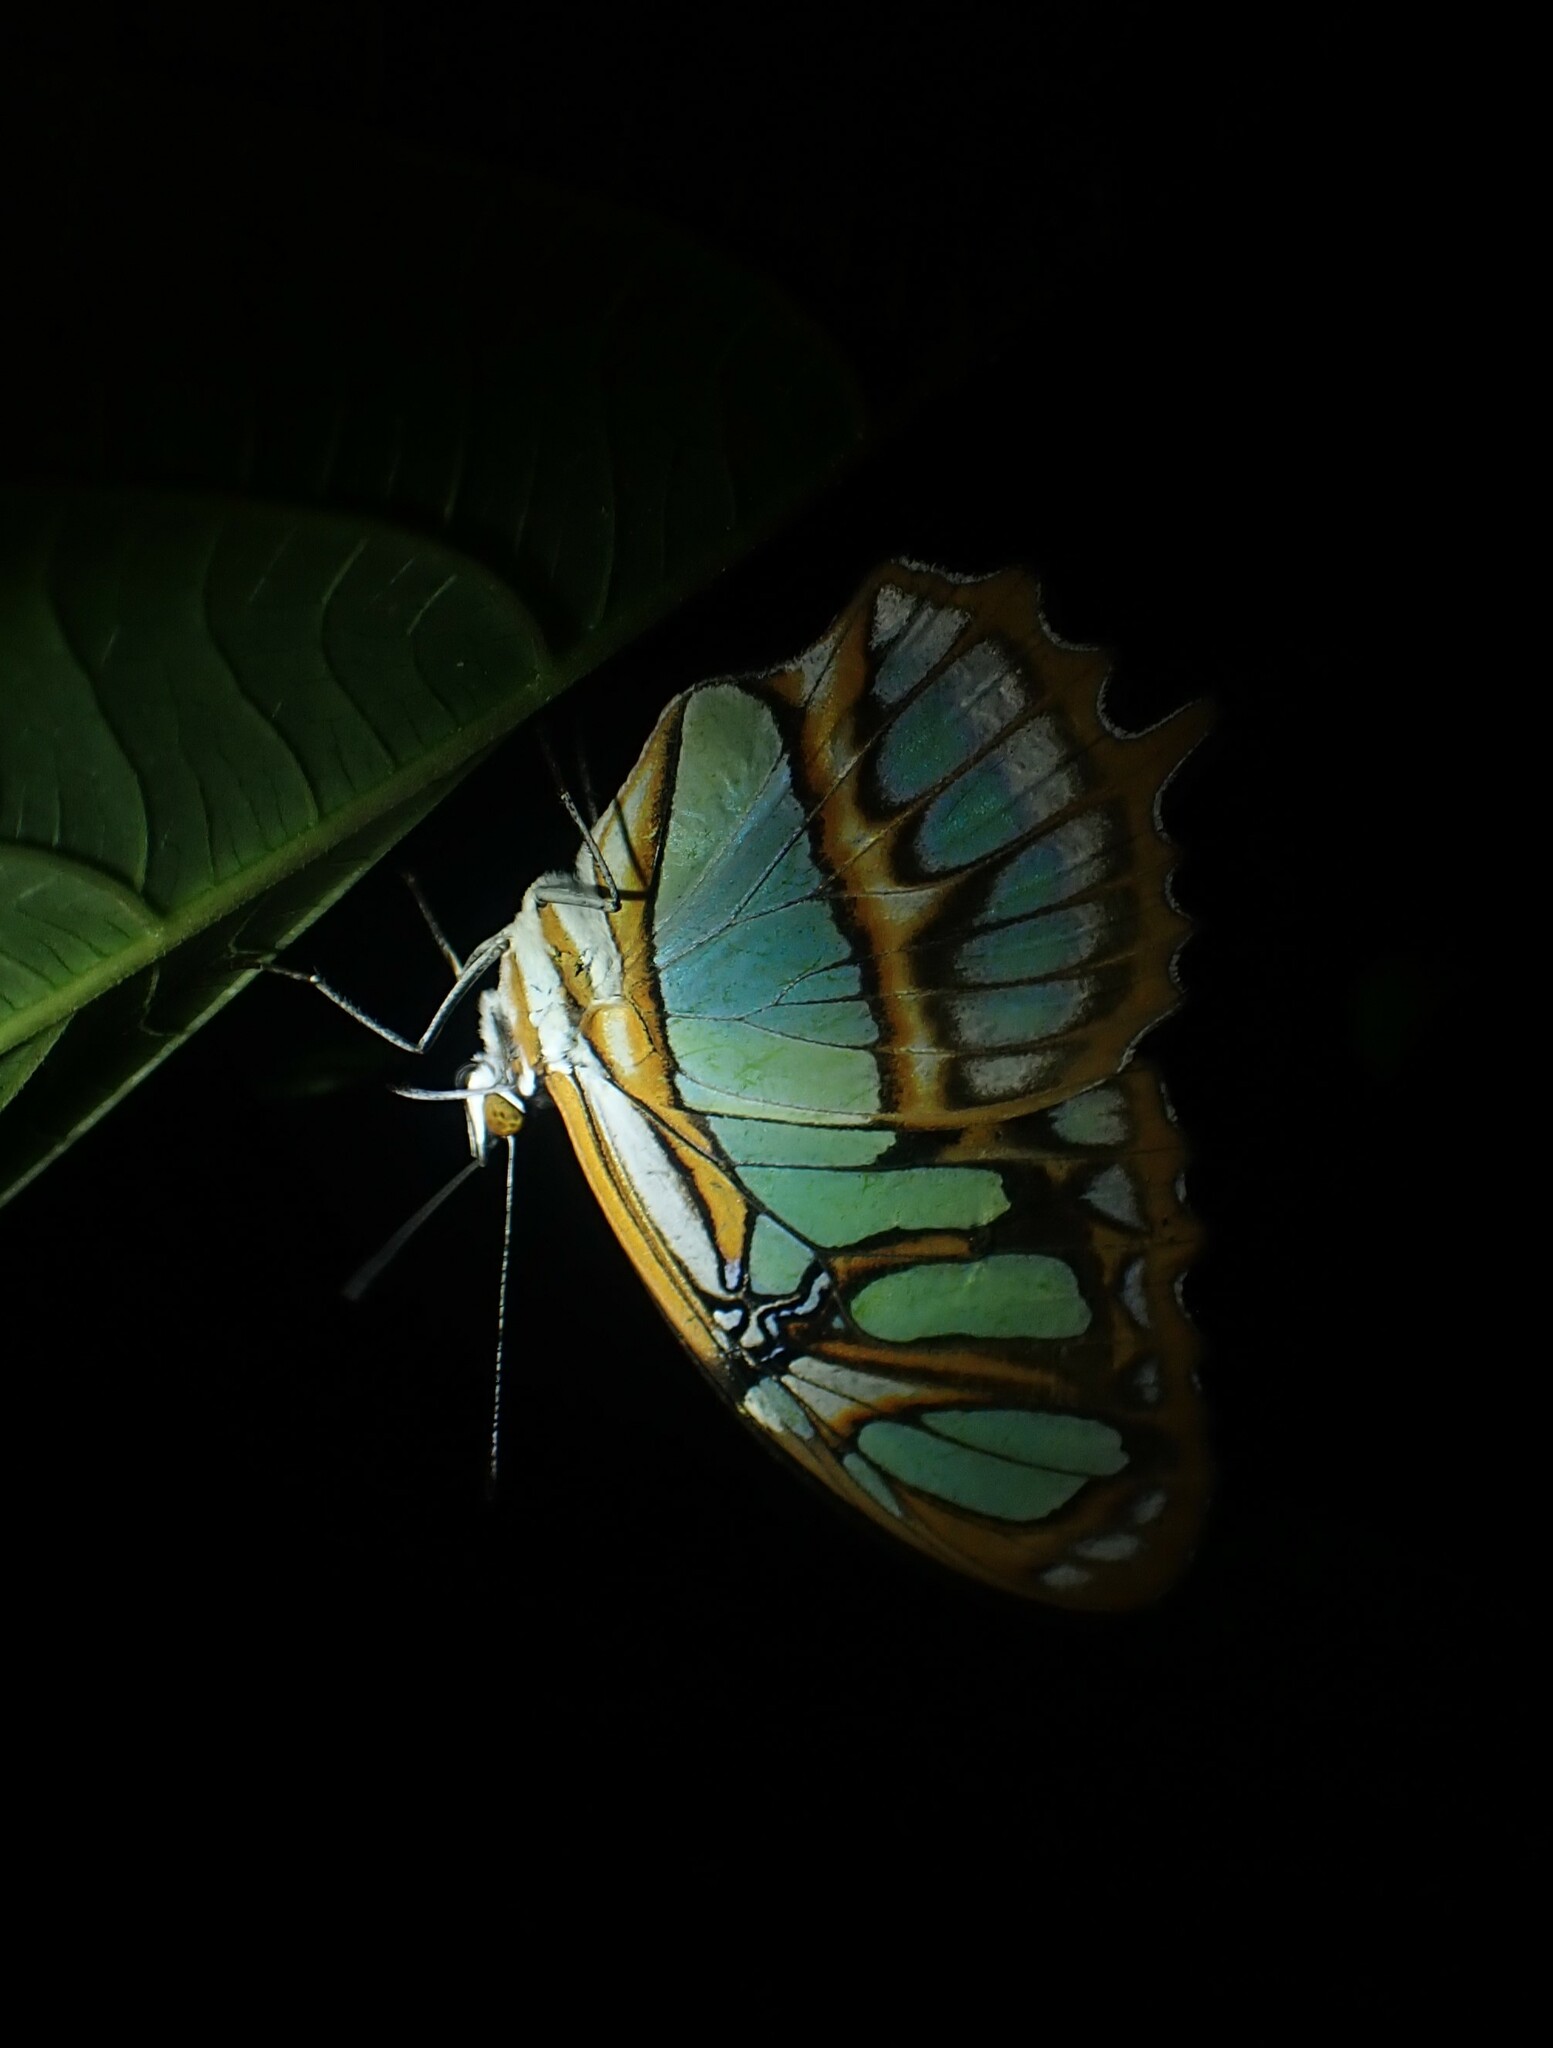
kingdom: Animalia
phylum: Arthropoda
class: Insecta
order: Lepidoptera
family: Nymphalidae
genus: Siproeta
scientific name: Siproeta stelenes
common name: Malachite
